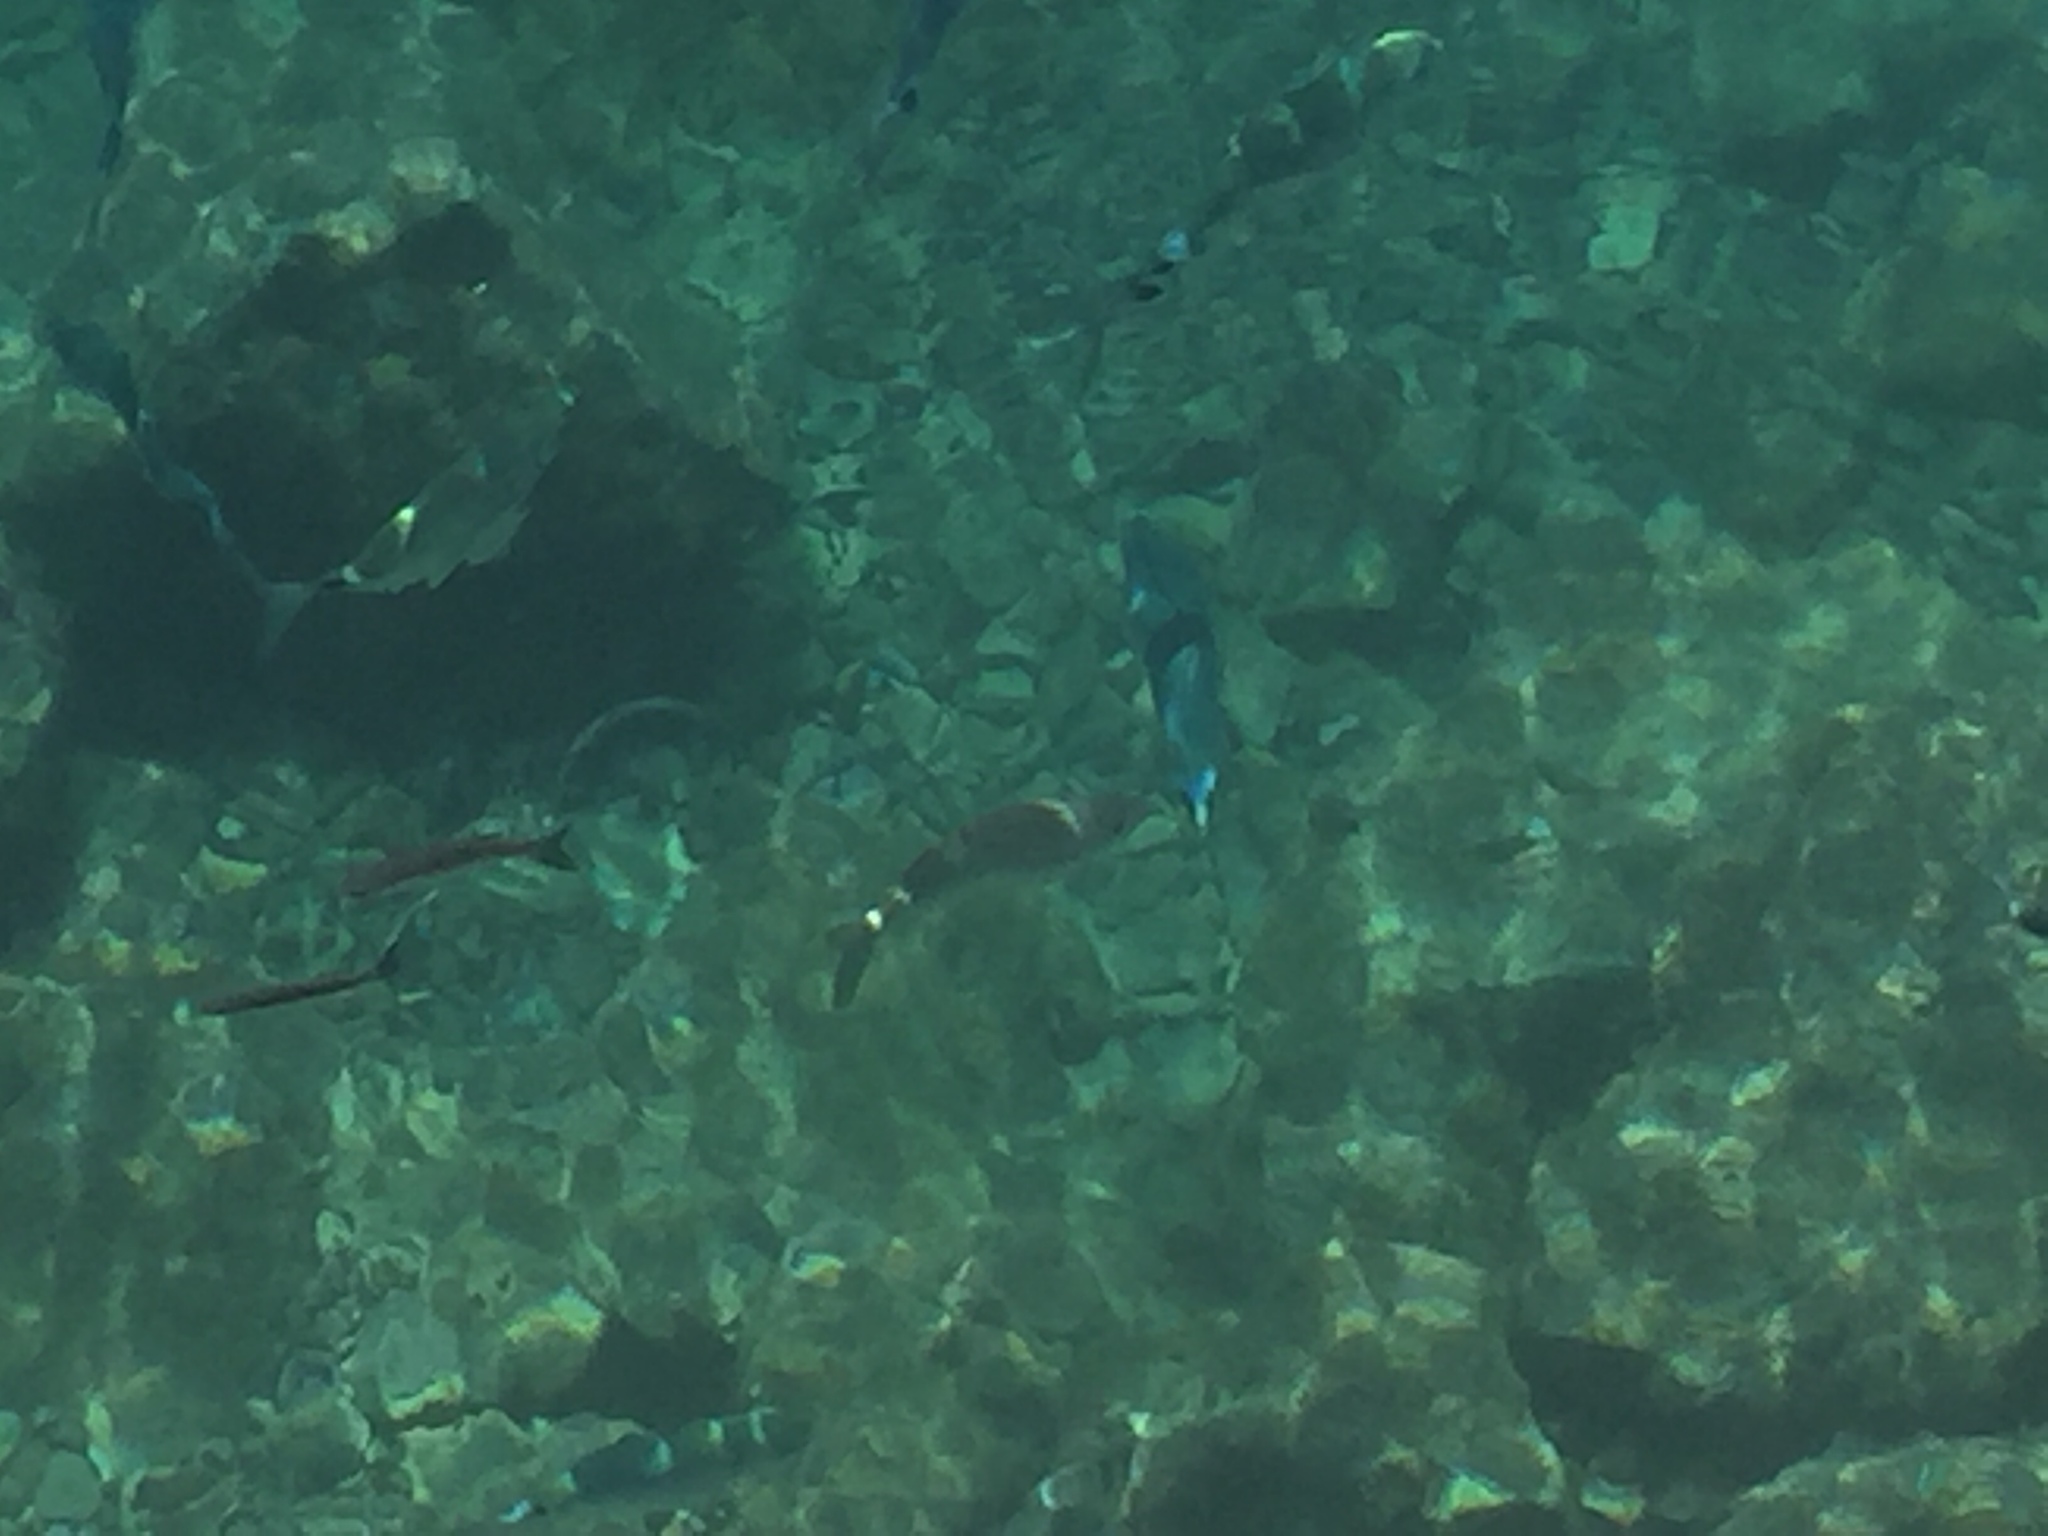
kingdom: Animalia
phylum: Chordata
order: Perciformes
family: Sparidae
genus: Oblada
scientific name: Oblada melanura
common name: Saddled seabream
